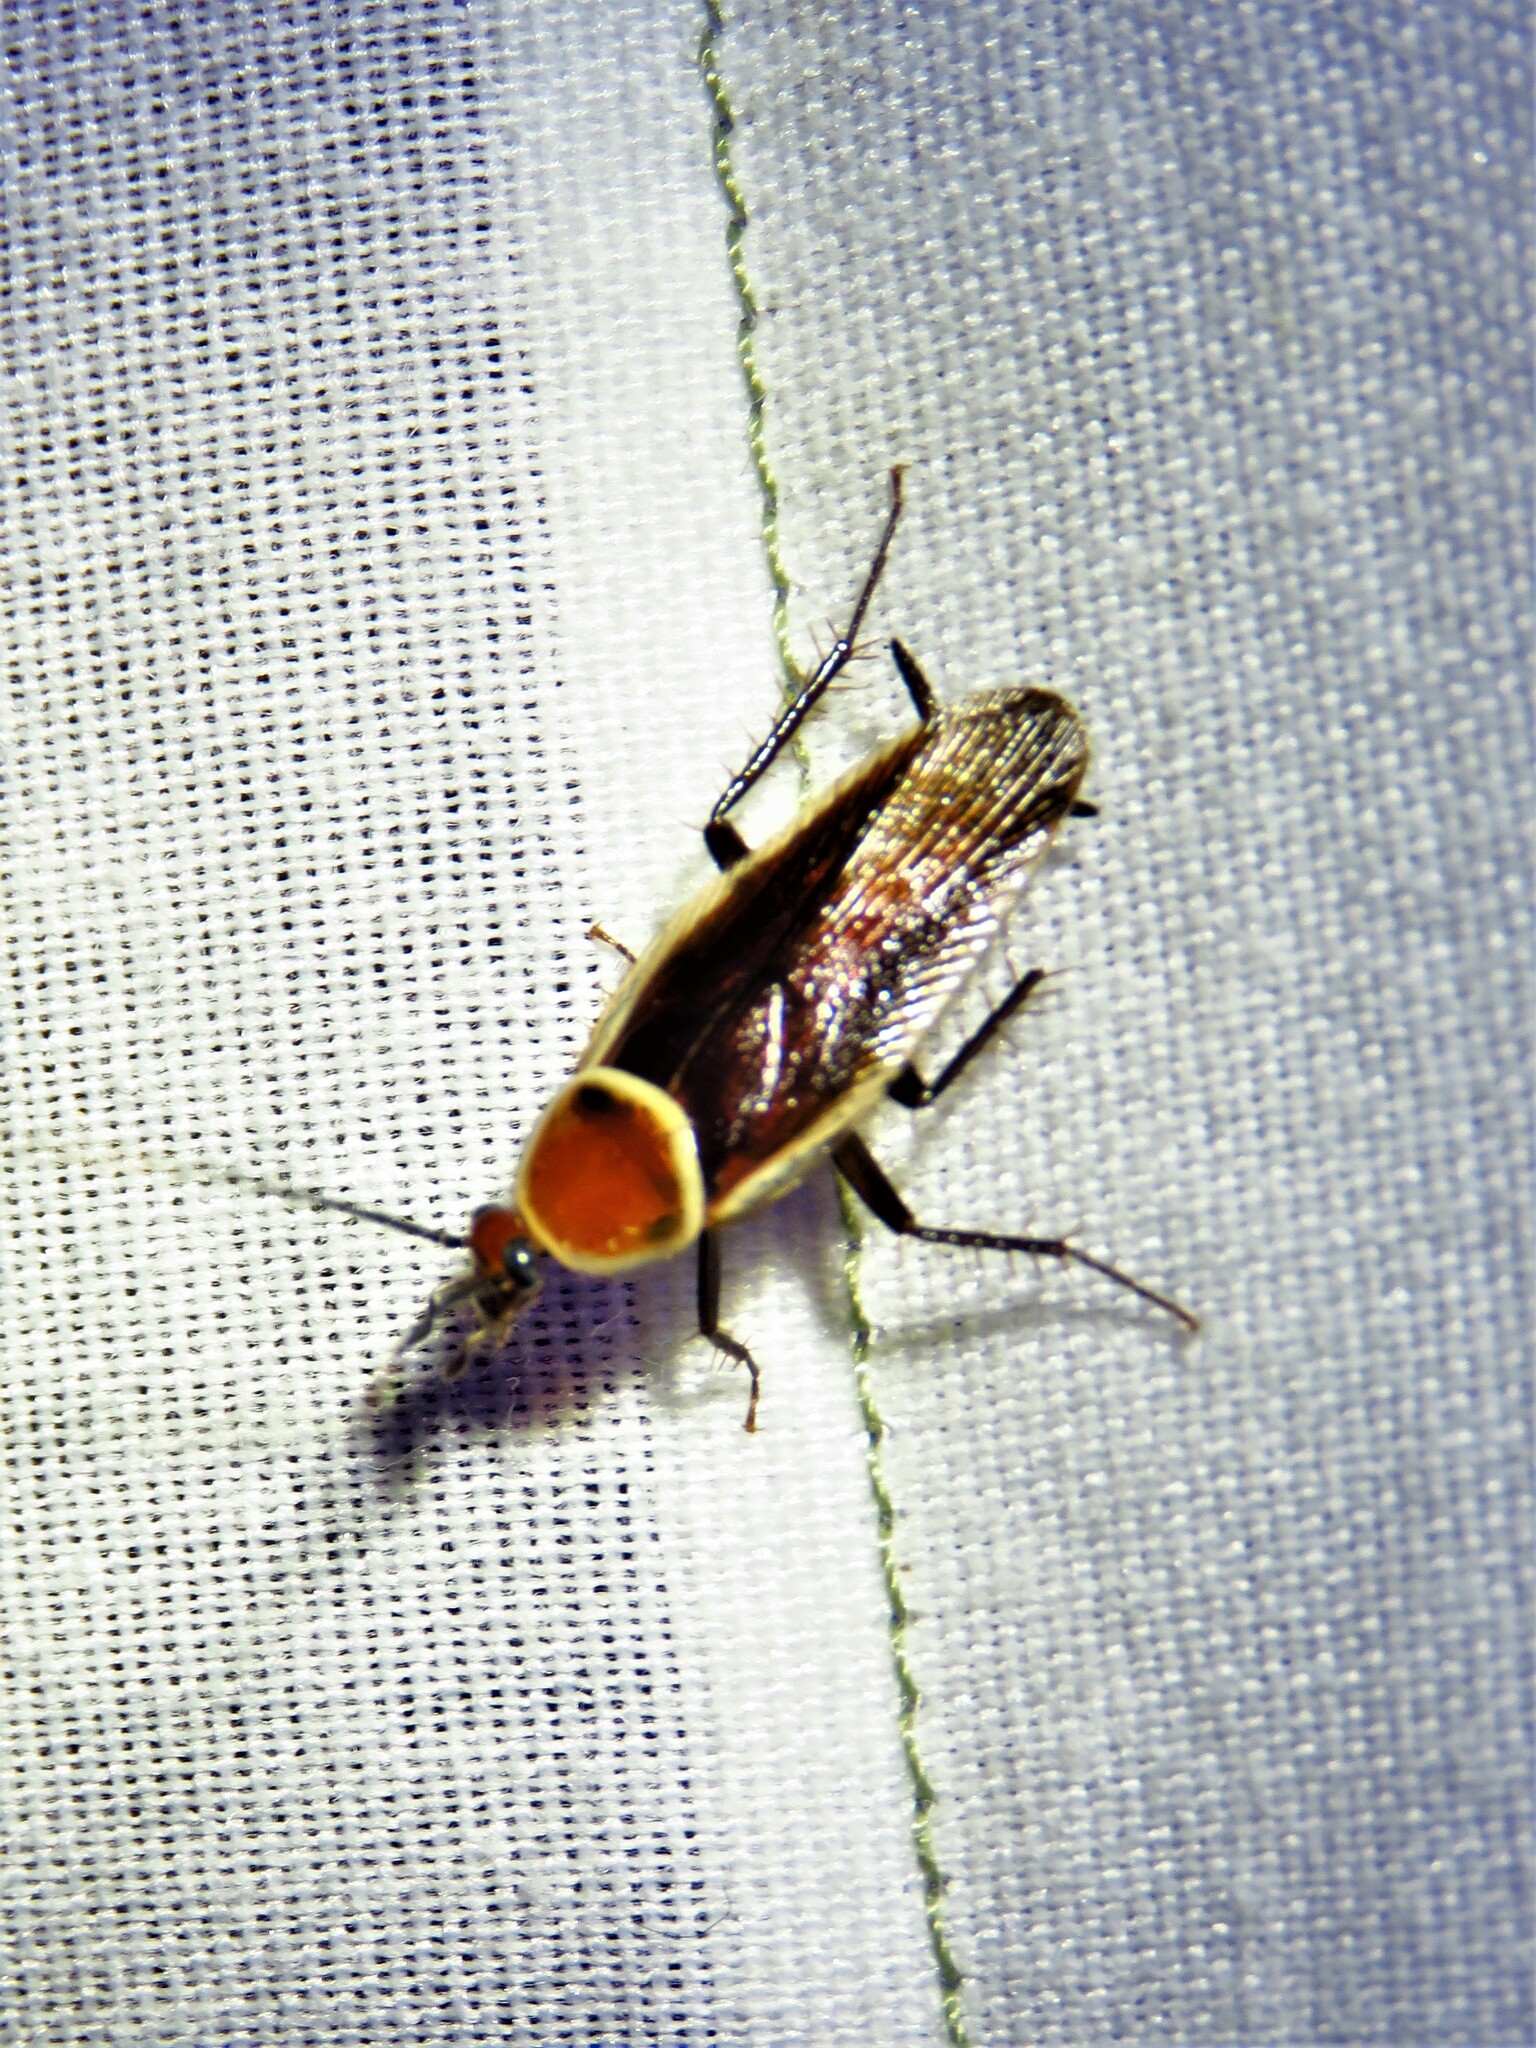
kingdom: Animalia
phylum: Arthropoda
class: Insecta
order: Blattodea
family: Ectobiidae
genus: Pseudomops
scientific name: Pseudomops septentrionalis
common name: Pale-bordered field cockroach
